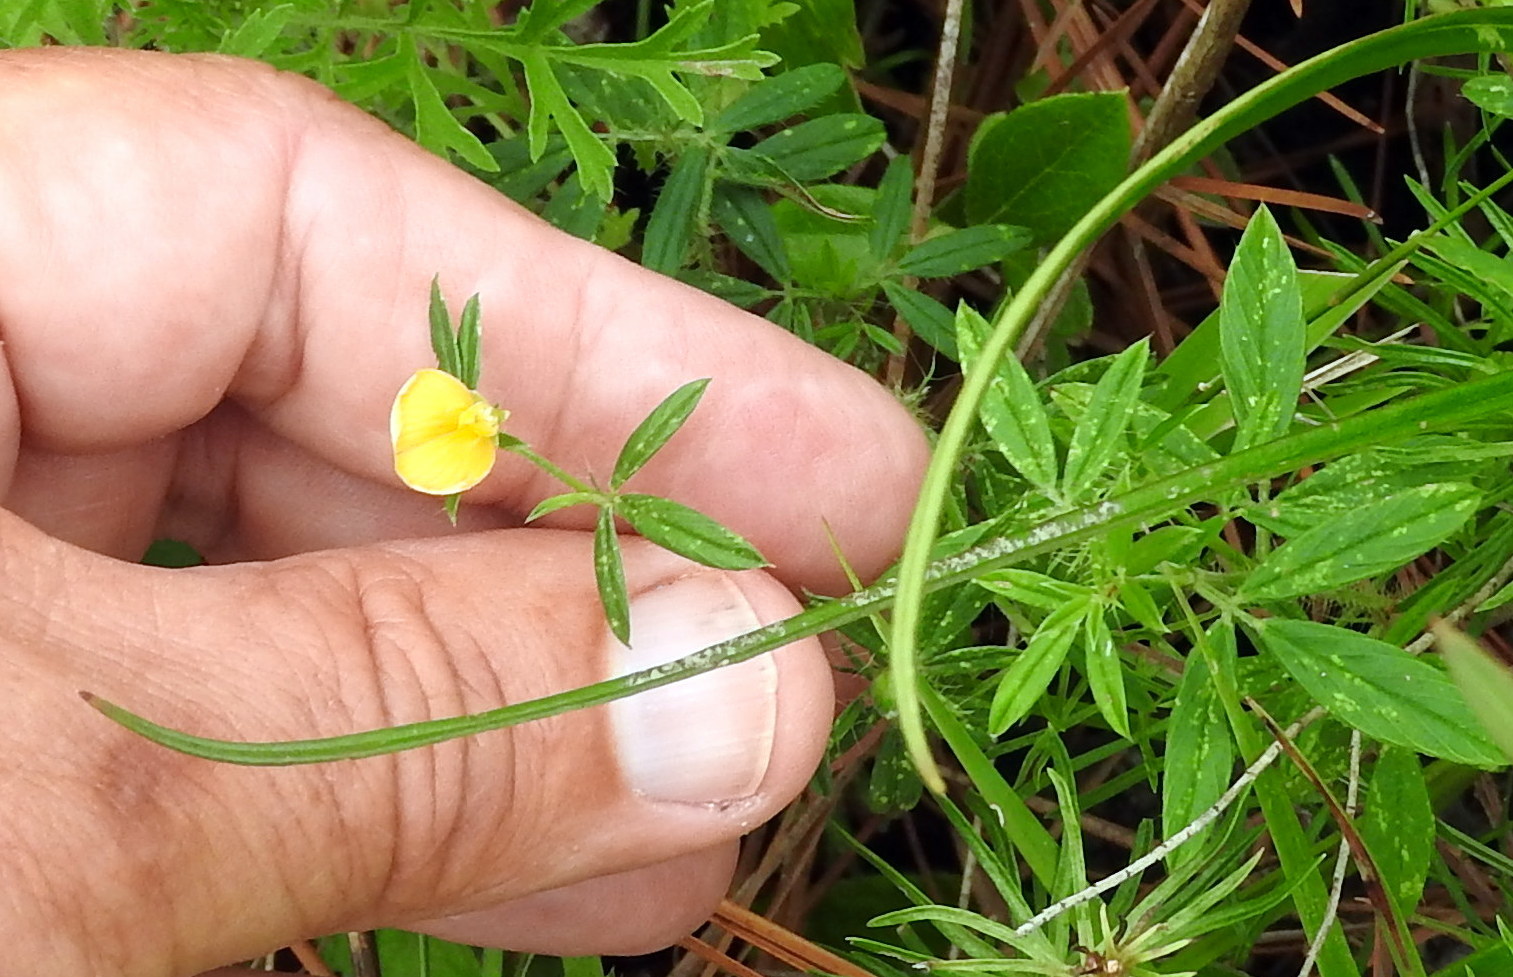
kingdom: Plantae
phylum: Tracheophyta
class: Magnoliopsida
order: Fabales
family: Fabaceae
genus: Stylosanthes
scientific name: Stylosanthes biflora
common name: Two-flower pencil-flower
